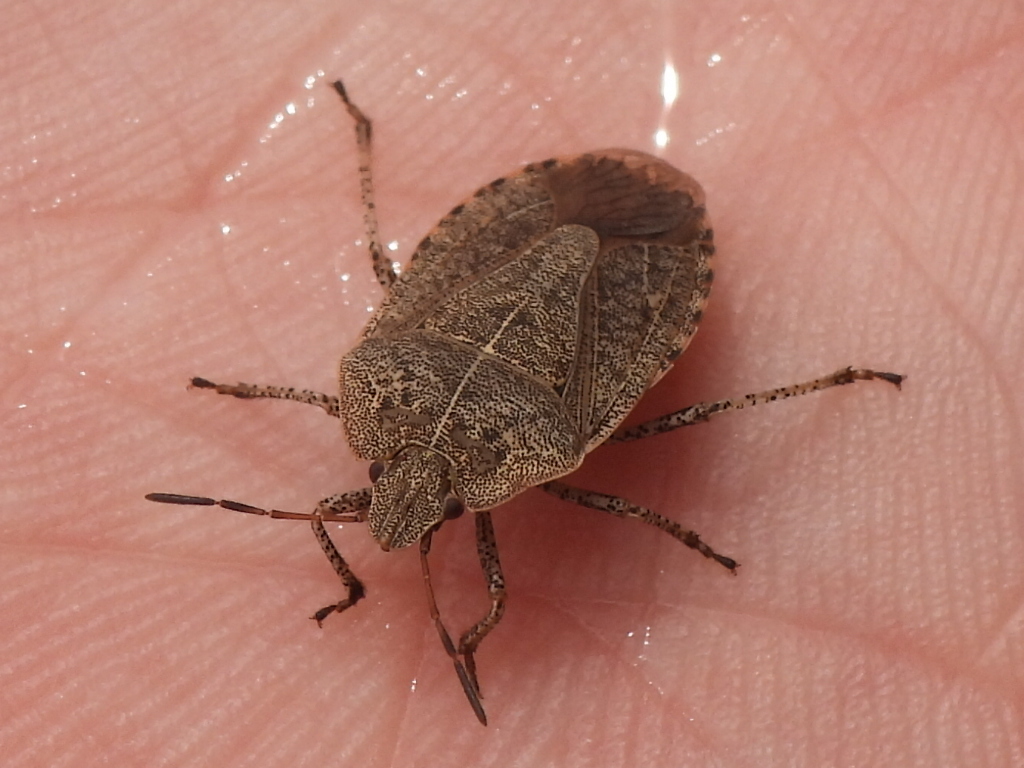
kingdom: Animalia
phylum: Arthropoda
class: Insecta
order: Hemiptera
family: Pentatomidae
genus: Menecles
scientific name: Menecles insertus
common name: Elf shoe stink bug
